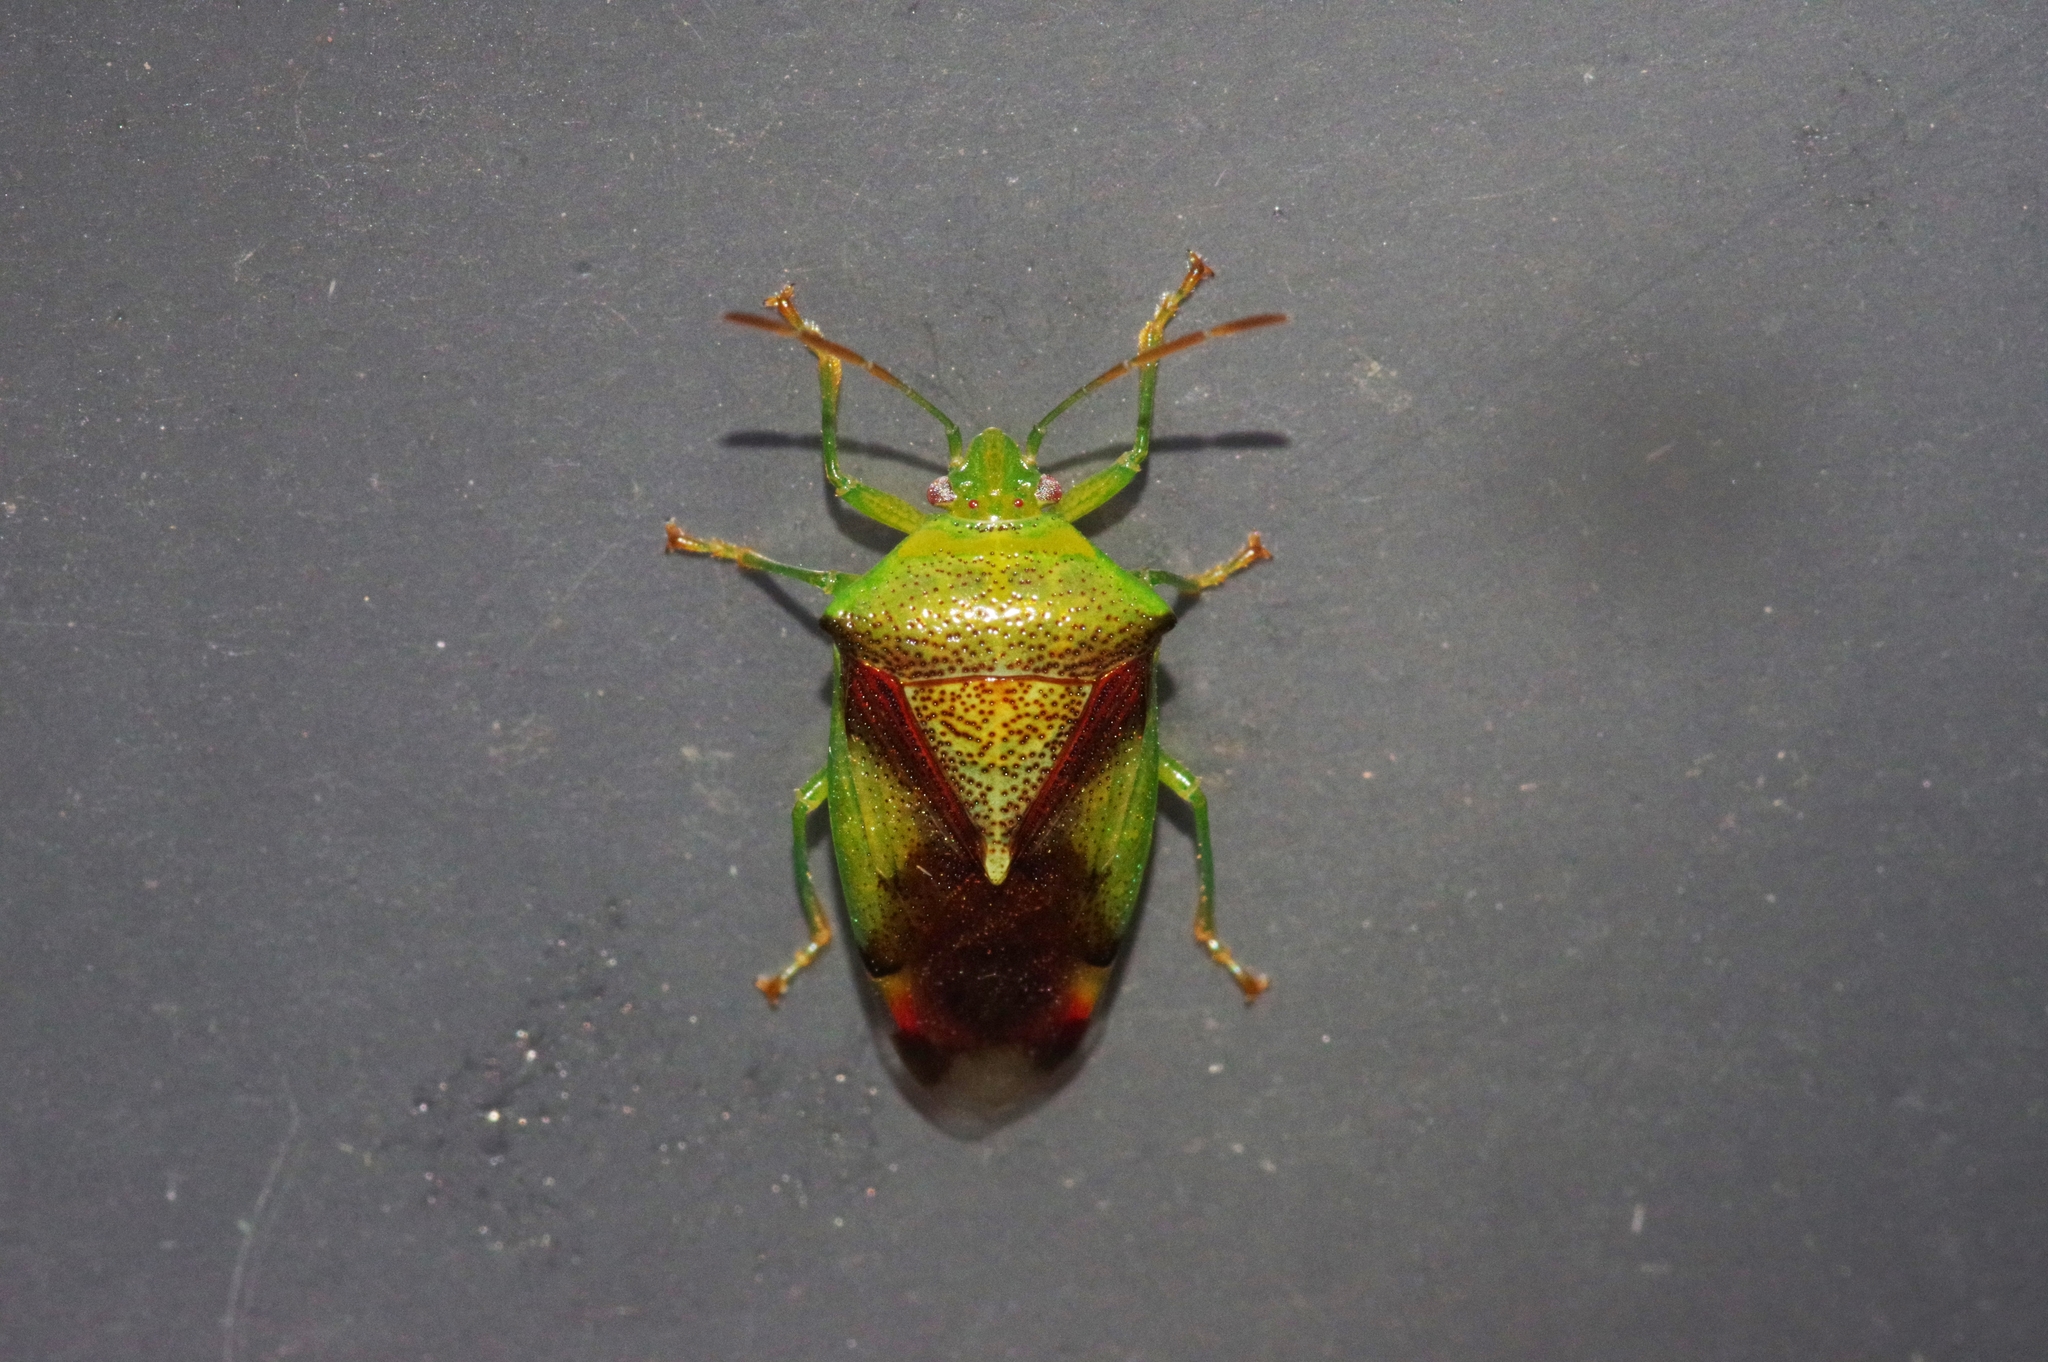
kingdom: Animalia
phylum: Arthropoda
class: Insecta
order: Hemiptera
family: Acanthosomatidae
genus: Elasmostethus
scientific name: Elasmostethus nubilus
